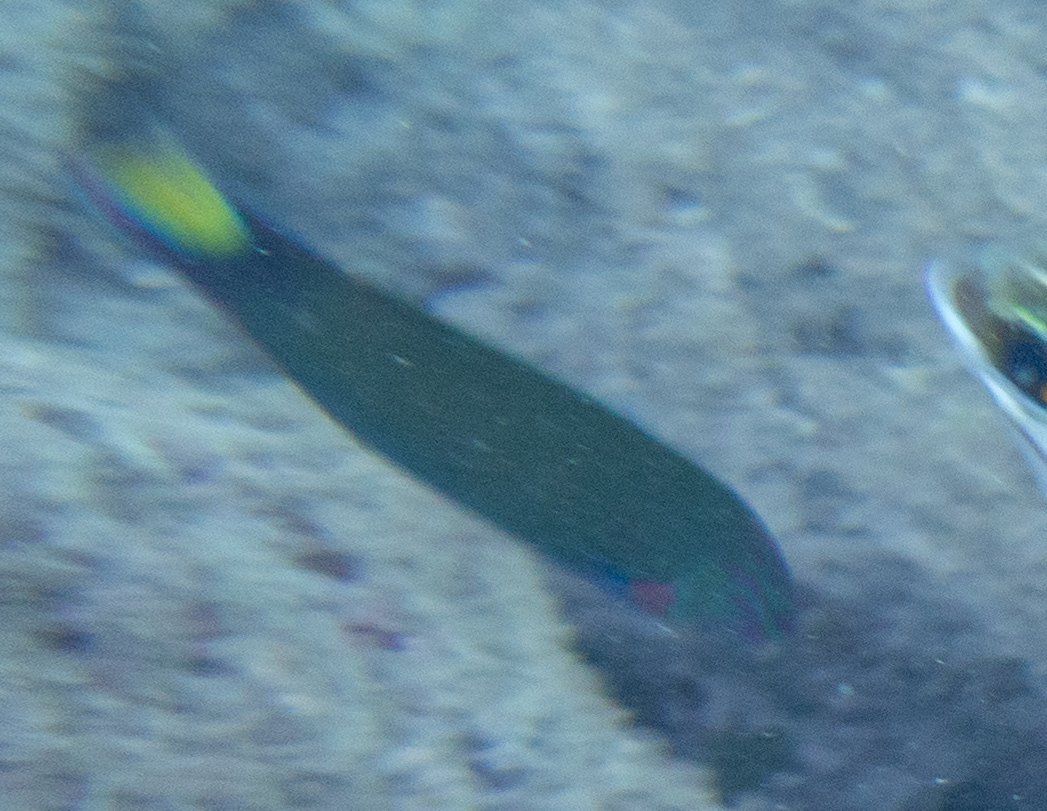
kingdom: Animalia
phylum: Chordata
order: Perciformes
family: Labridae
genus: Thalassoma
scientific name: Thalassoma lunare
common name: Blue wrasse
